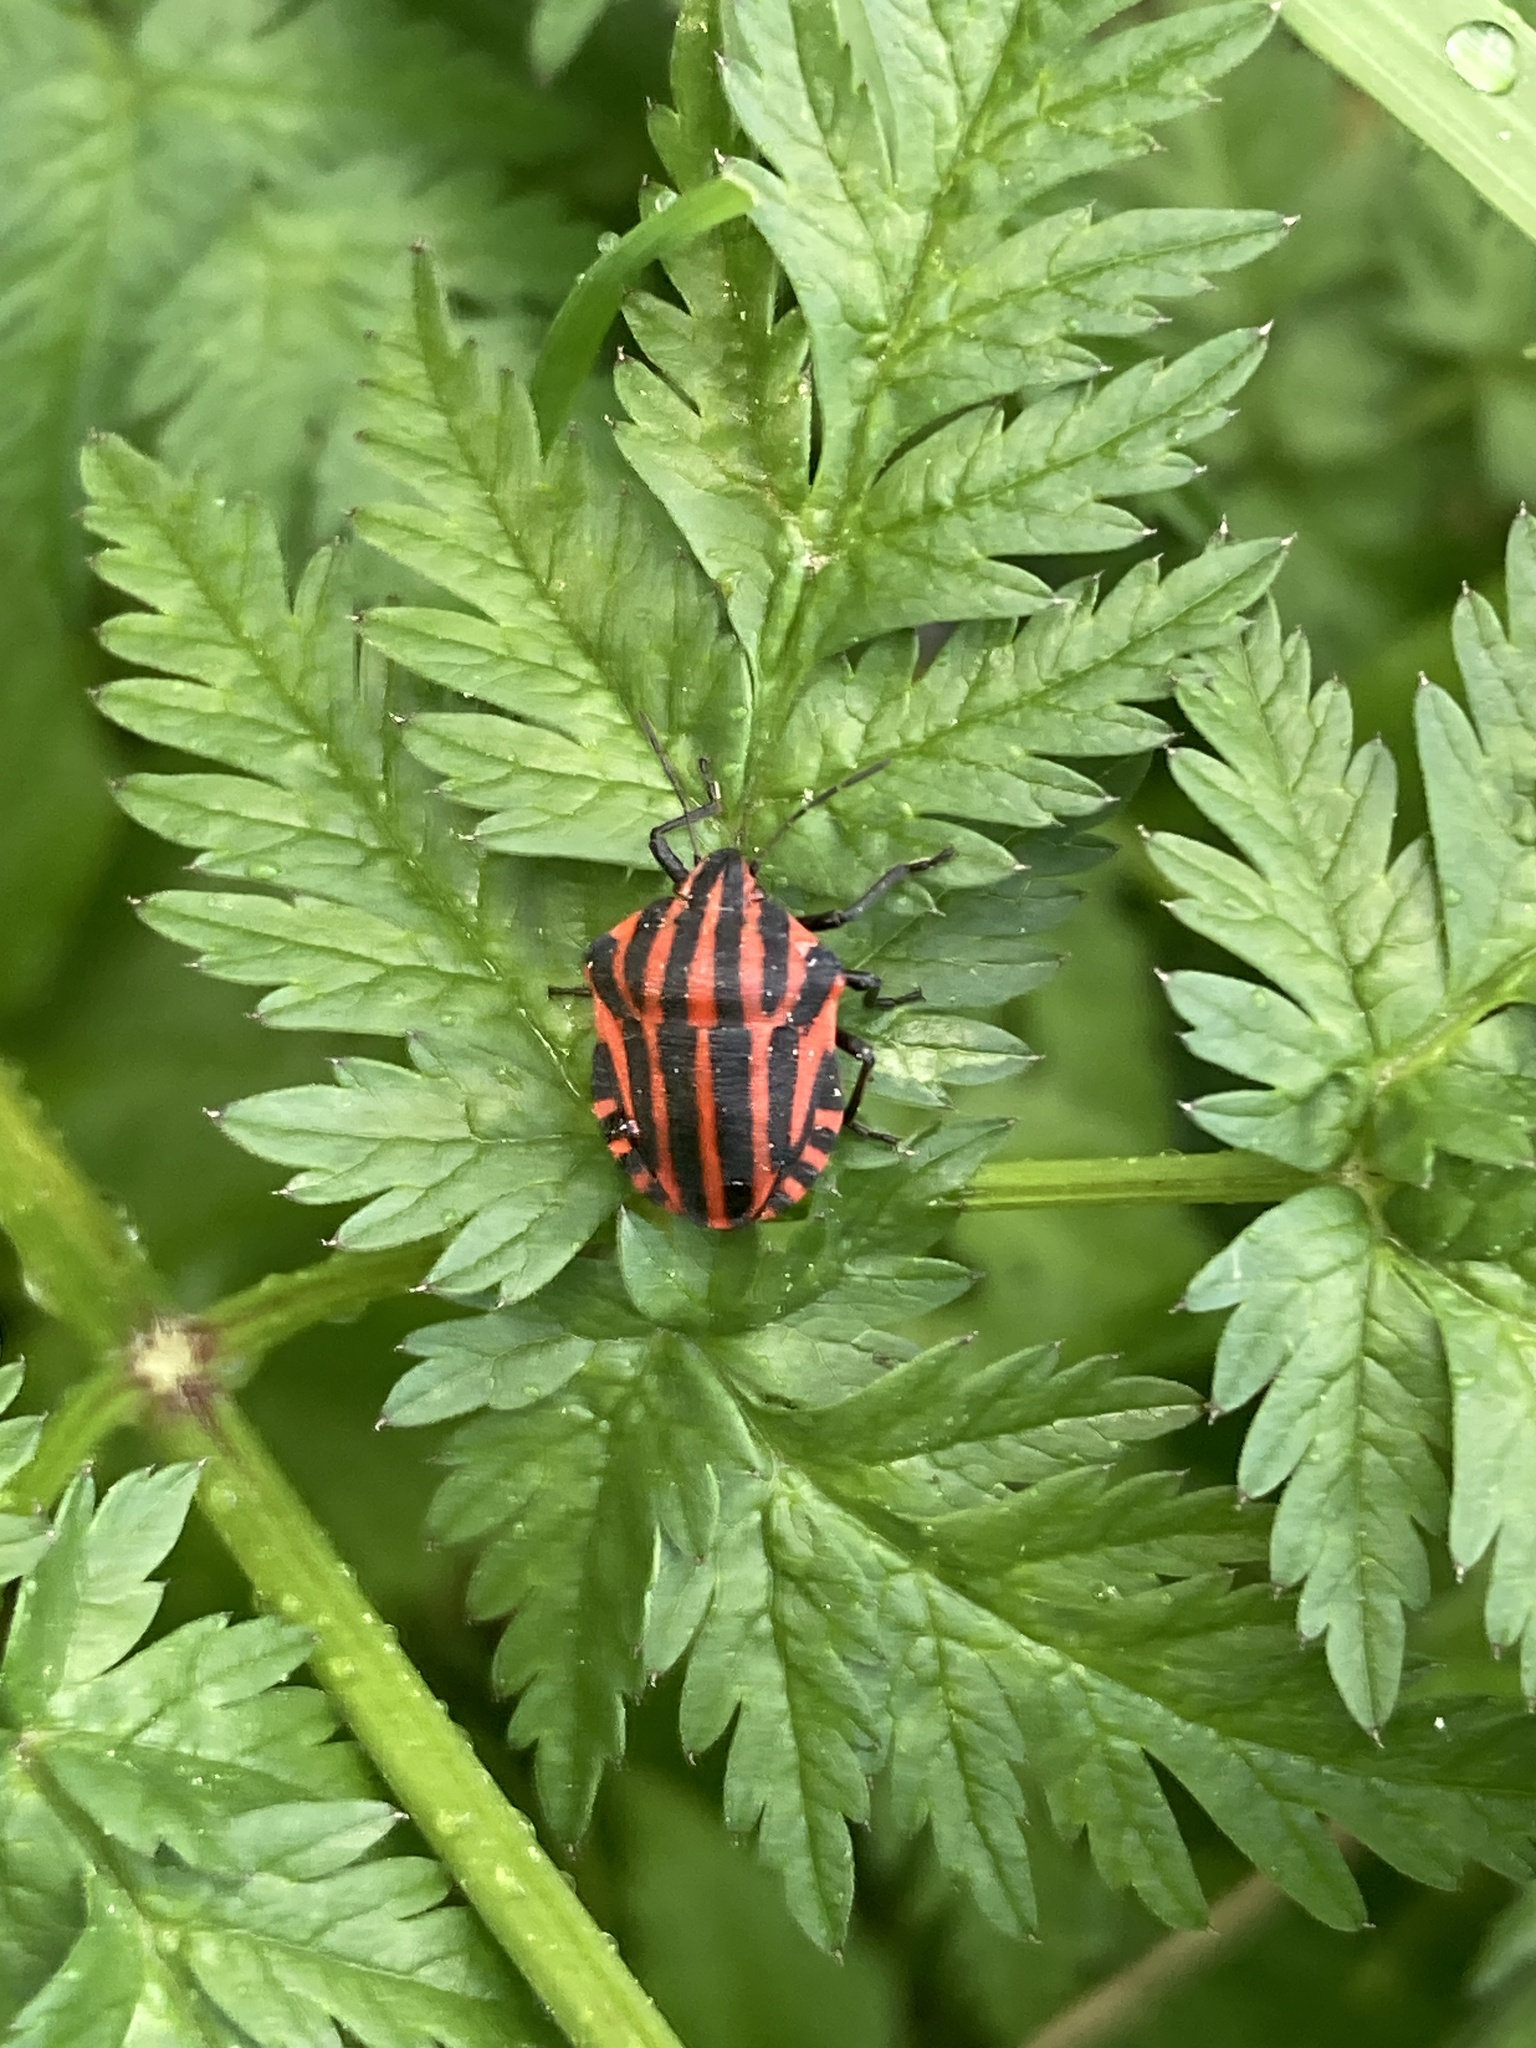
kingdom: Animalia
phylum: Arthropoda
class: Insecta
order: Hemiptera
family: Pentatomidae
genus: Graphosoma
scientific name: Graphosoma italicum
